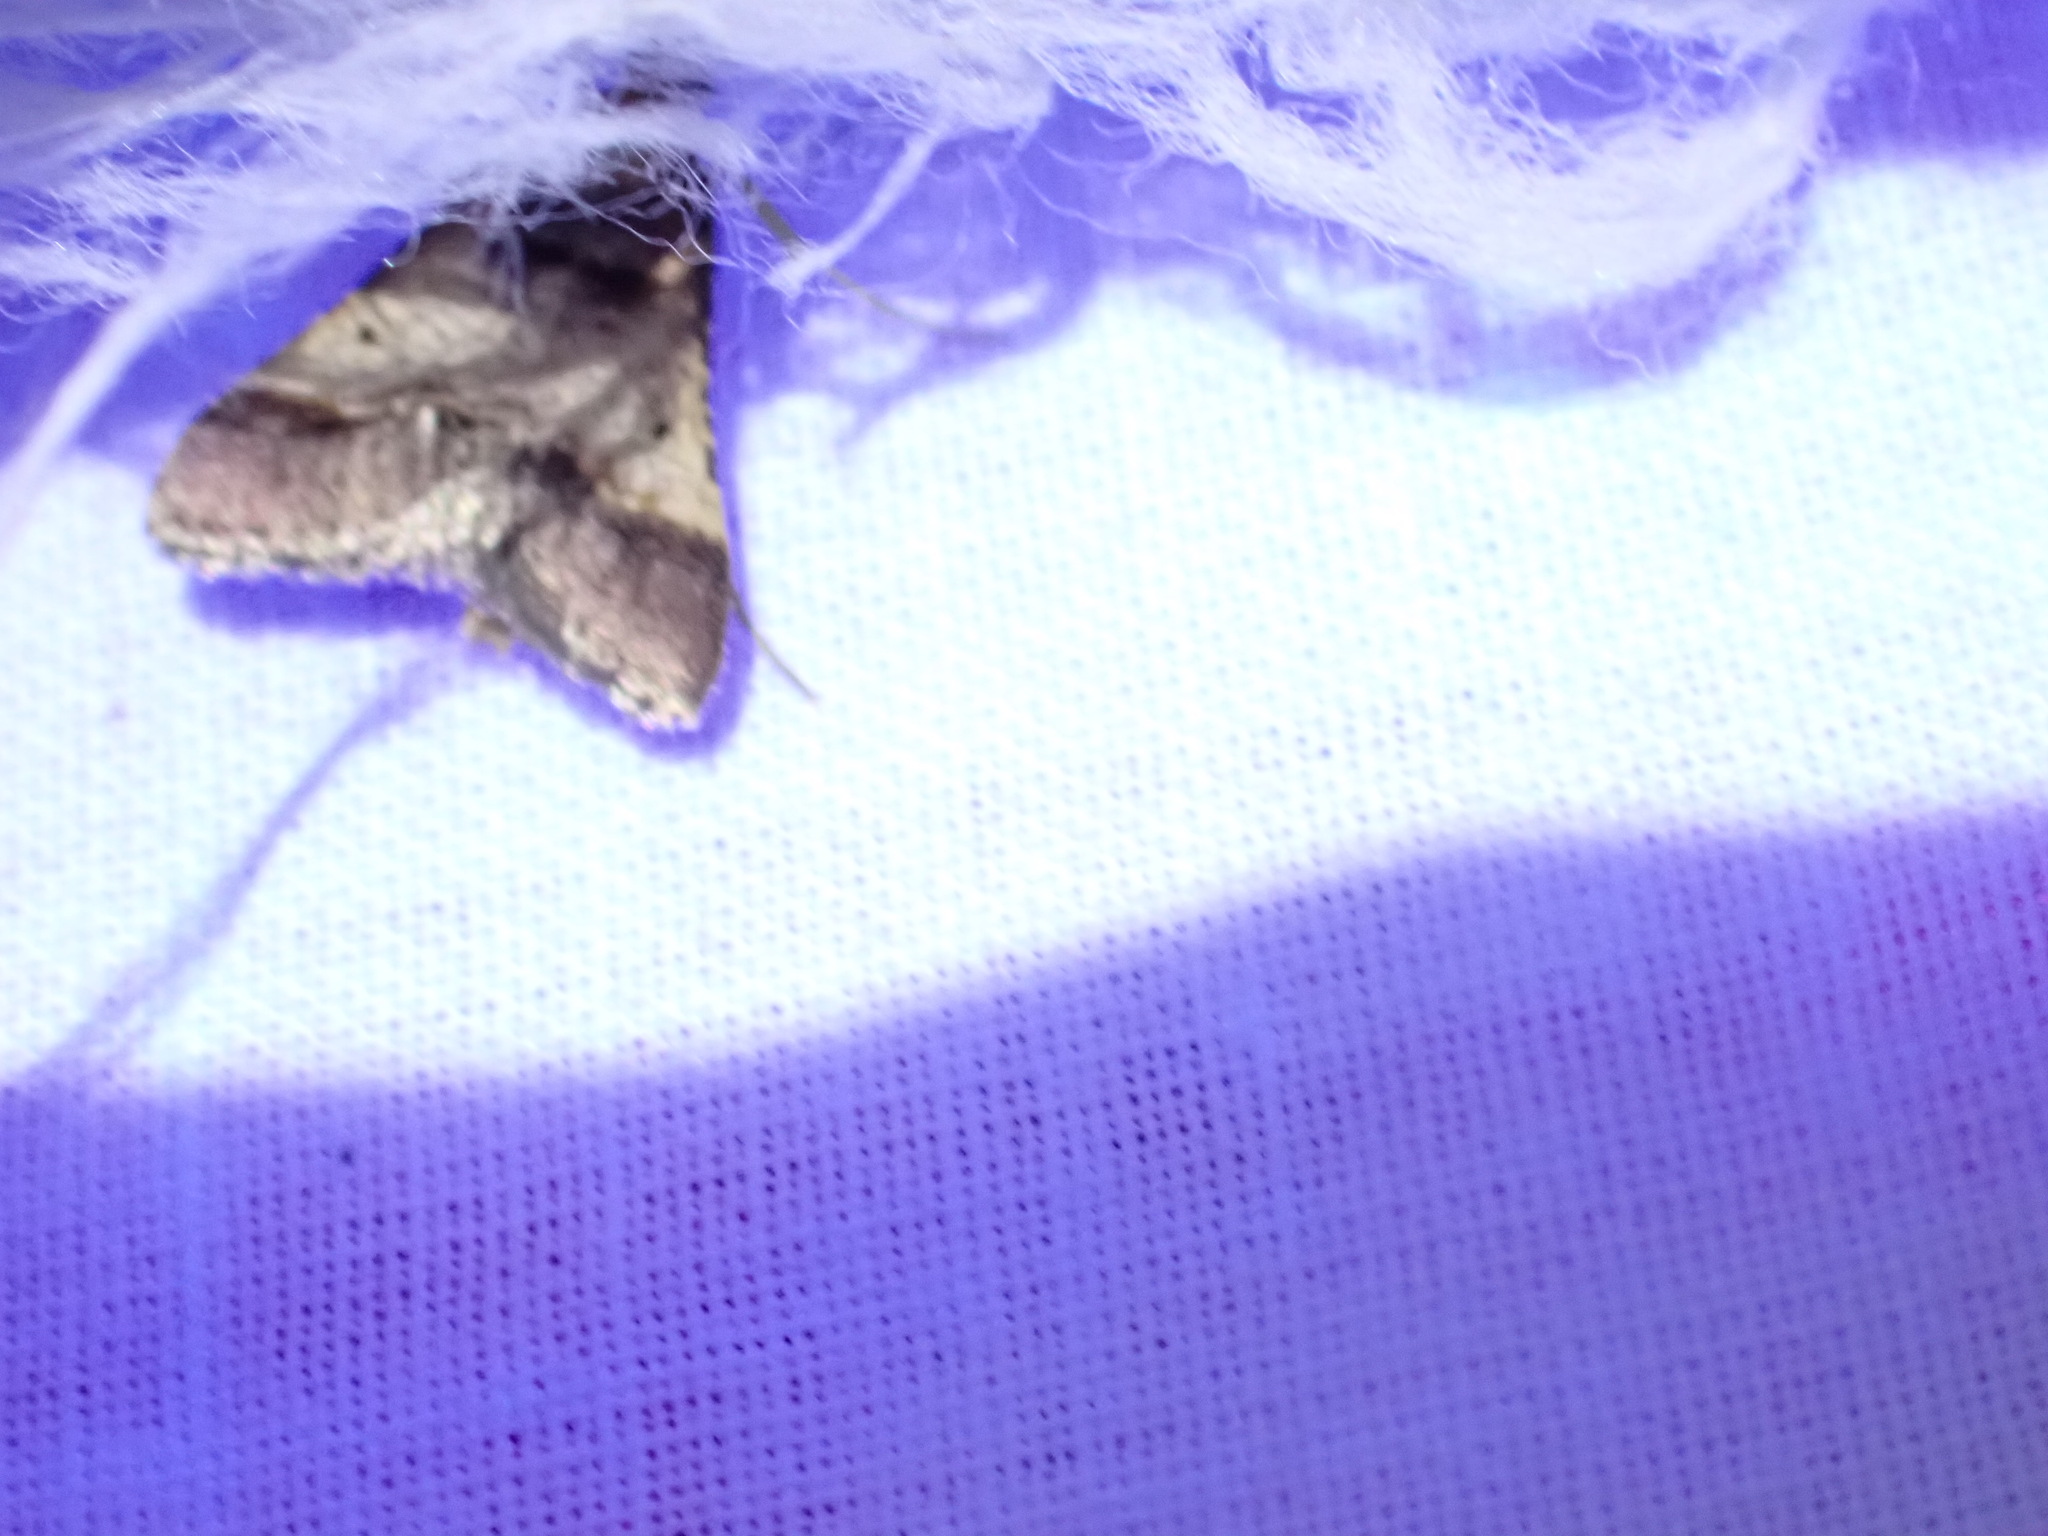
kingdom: Animalia
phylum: Arthropoda
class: Insecta
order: Lepidoptera
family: Pyralidae
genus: Stemmatophora
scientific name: Stemmatophora brunnealis
